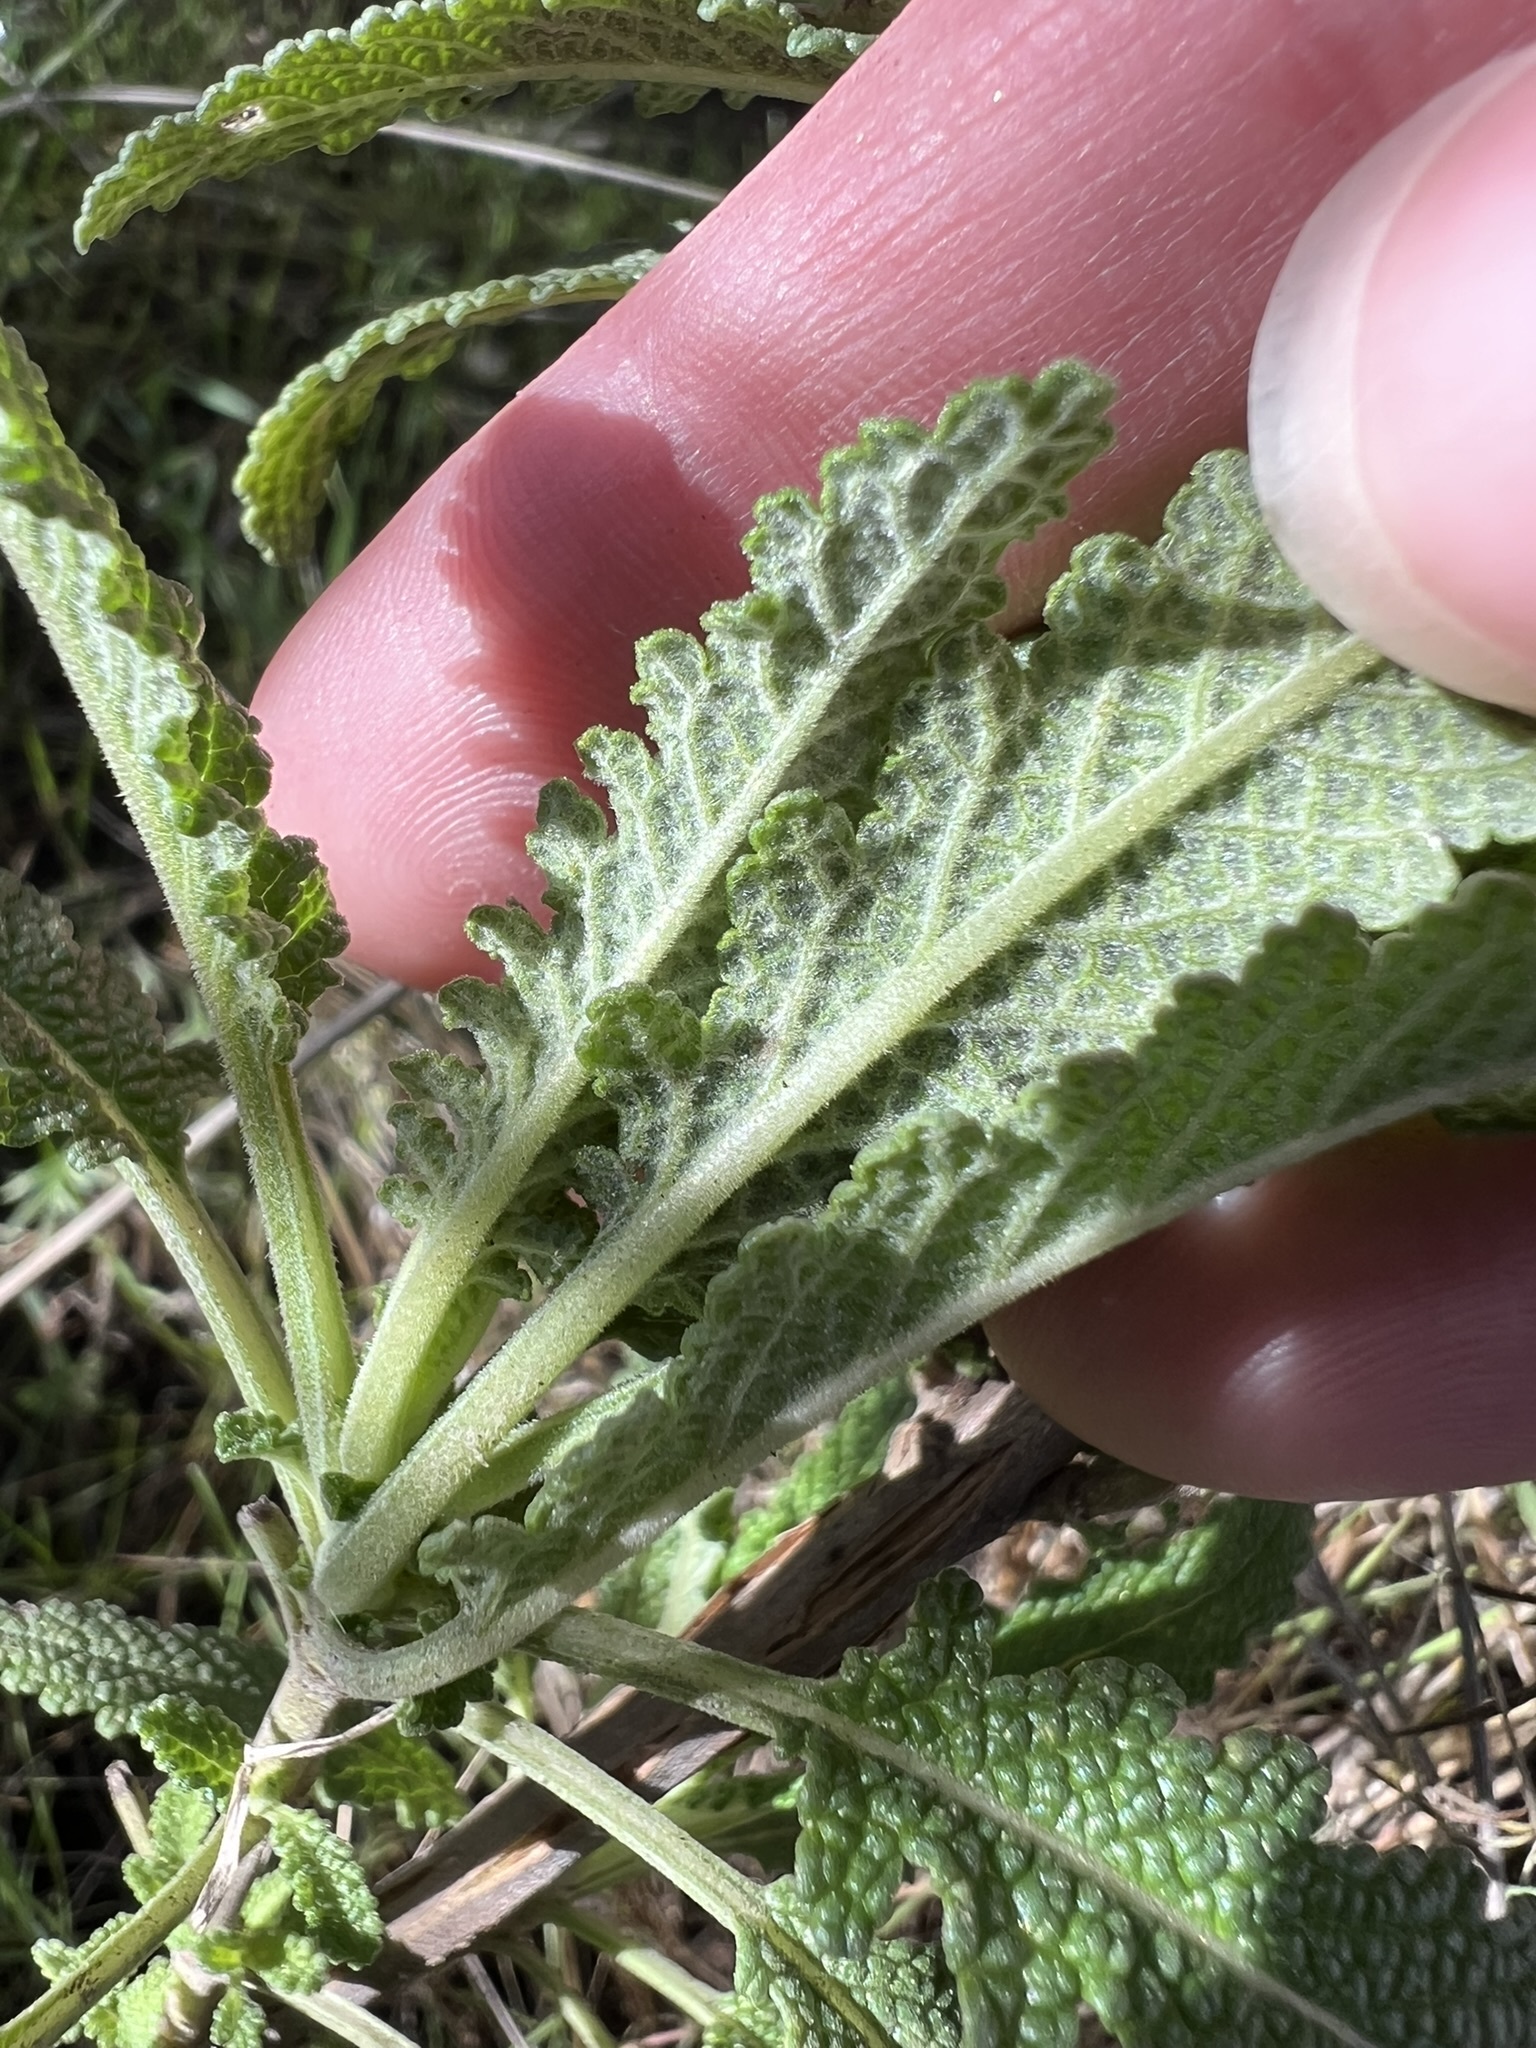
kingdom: Plantae
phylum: Tracheophyta
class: Magnoliopsida
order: Lamiales
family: Lamiaceae
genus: Salvia
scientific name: Salvia bernardina
